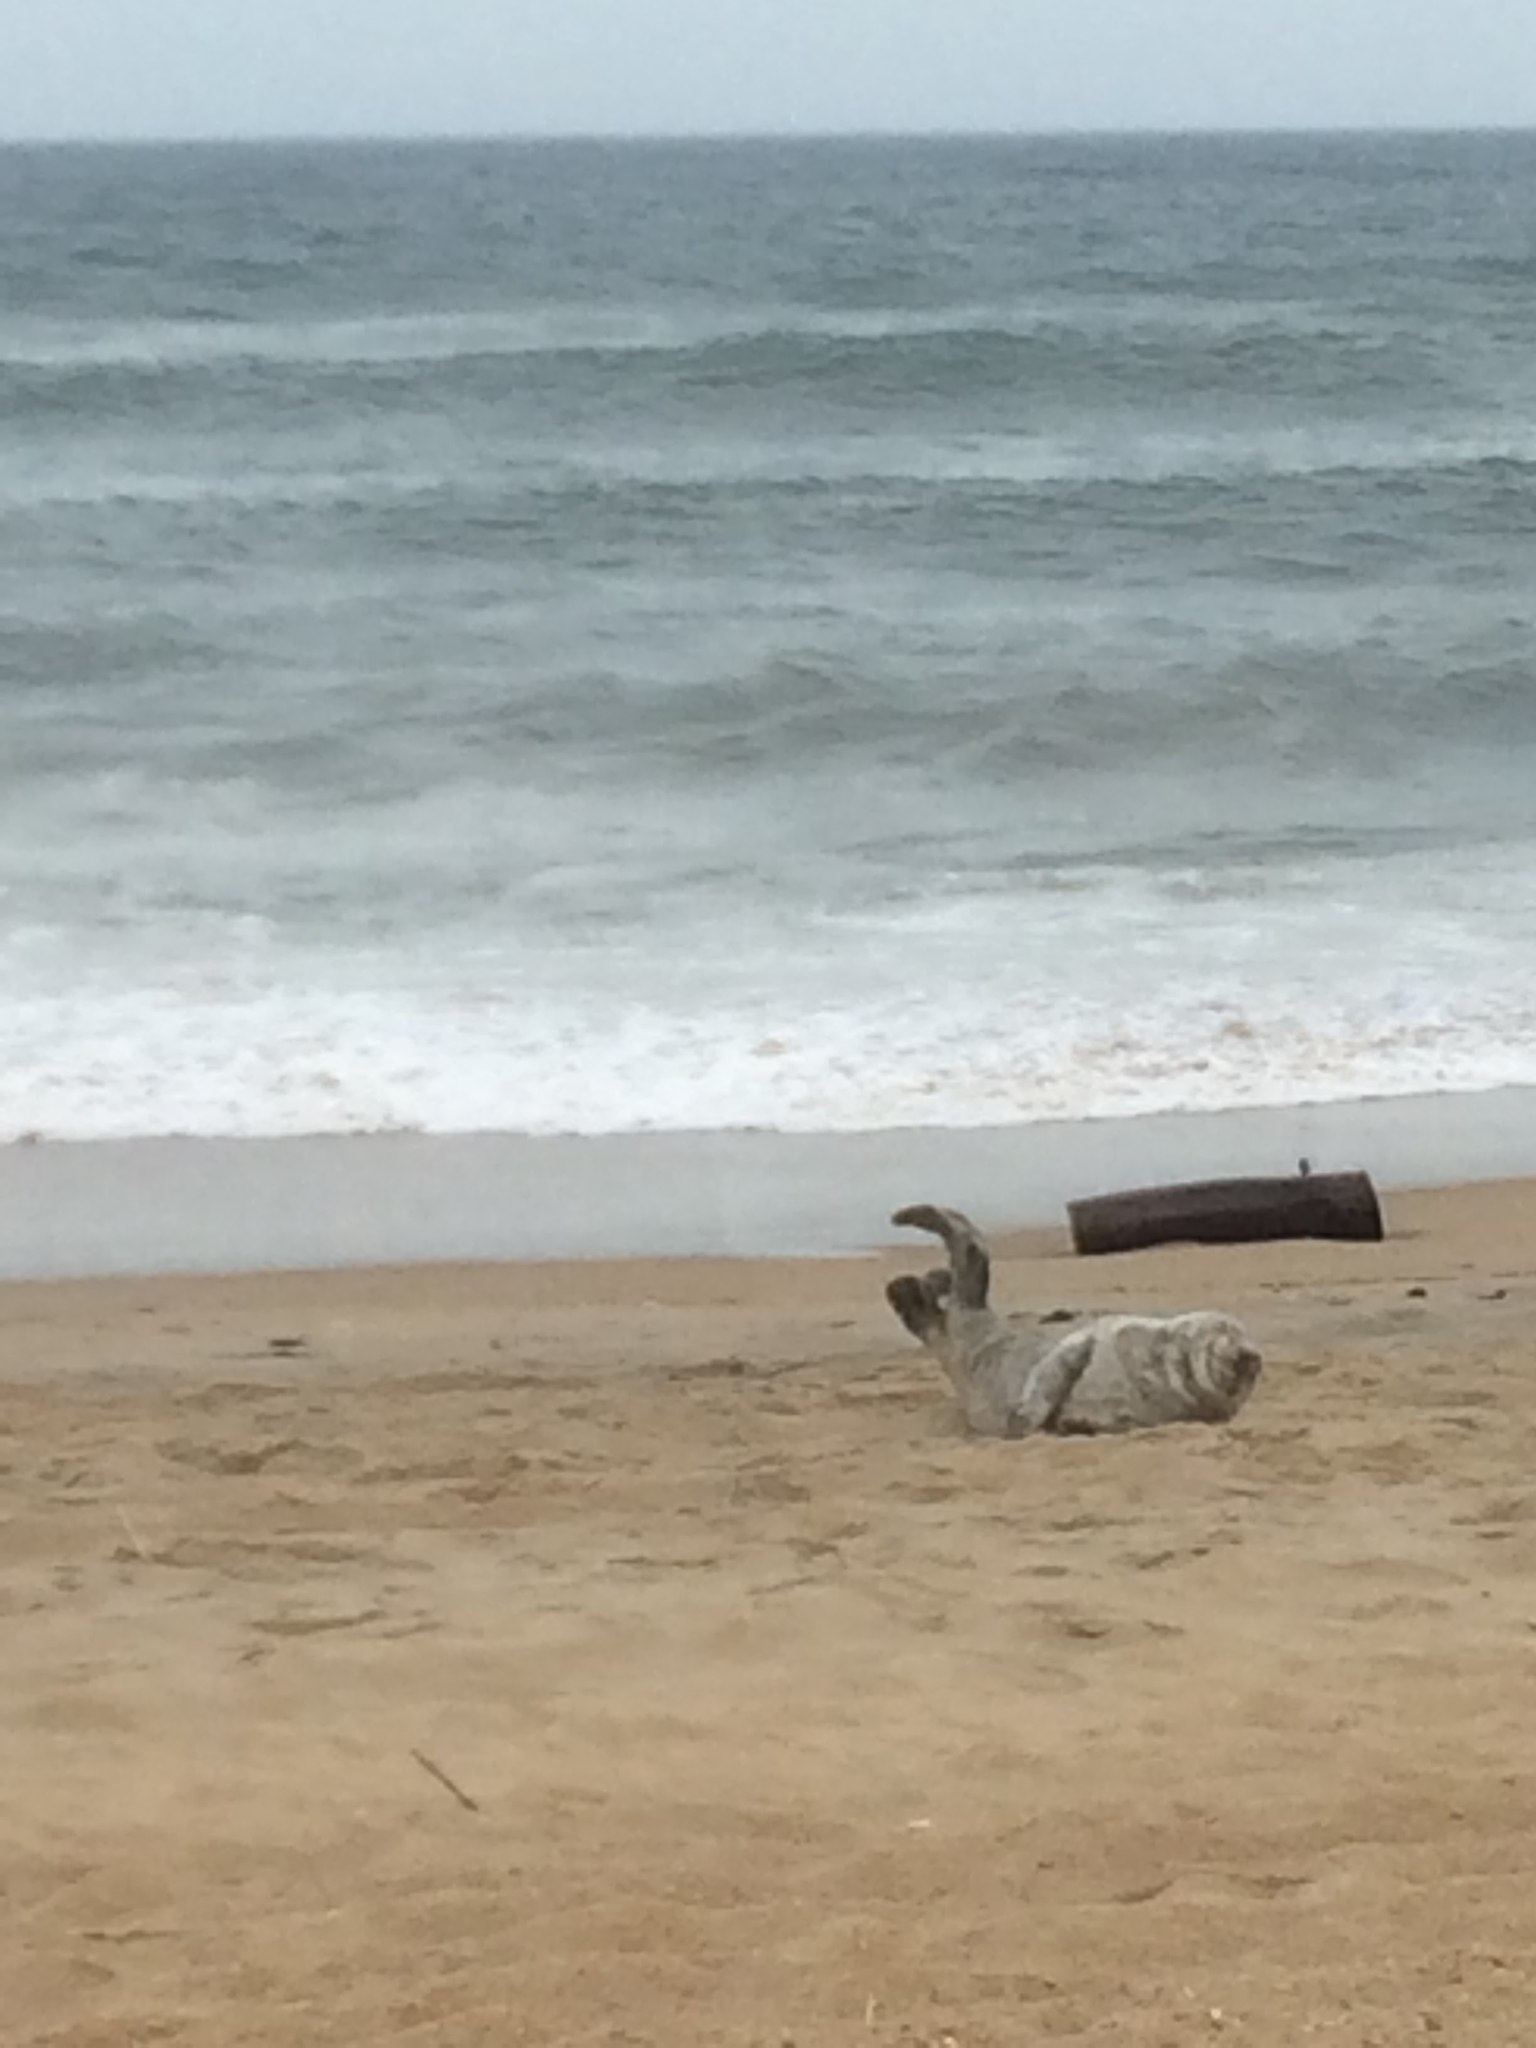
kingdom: Animalia
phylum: Chordata
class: Mammalia
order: Carnivora
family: Phocidae
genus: Halichoerus
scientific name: Halichoerus grypus
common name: Grey seal
